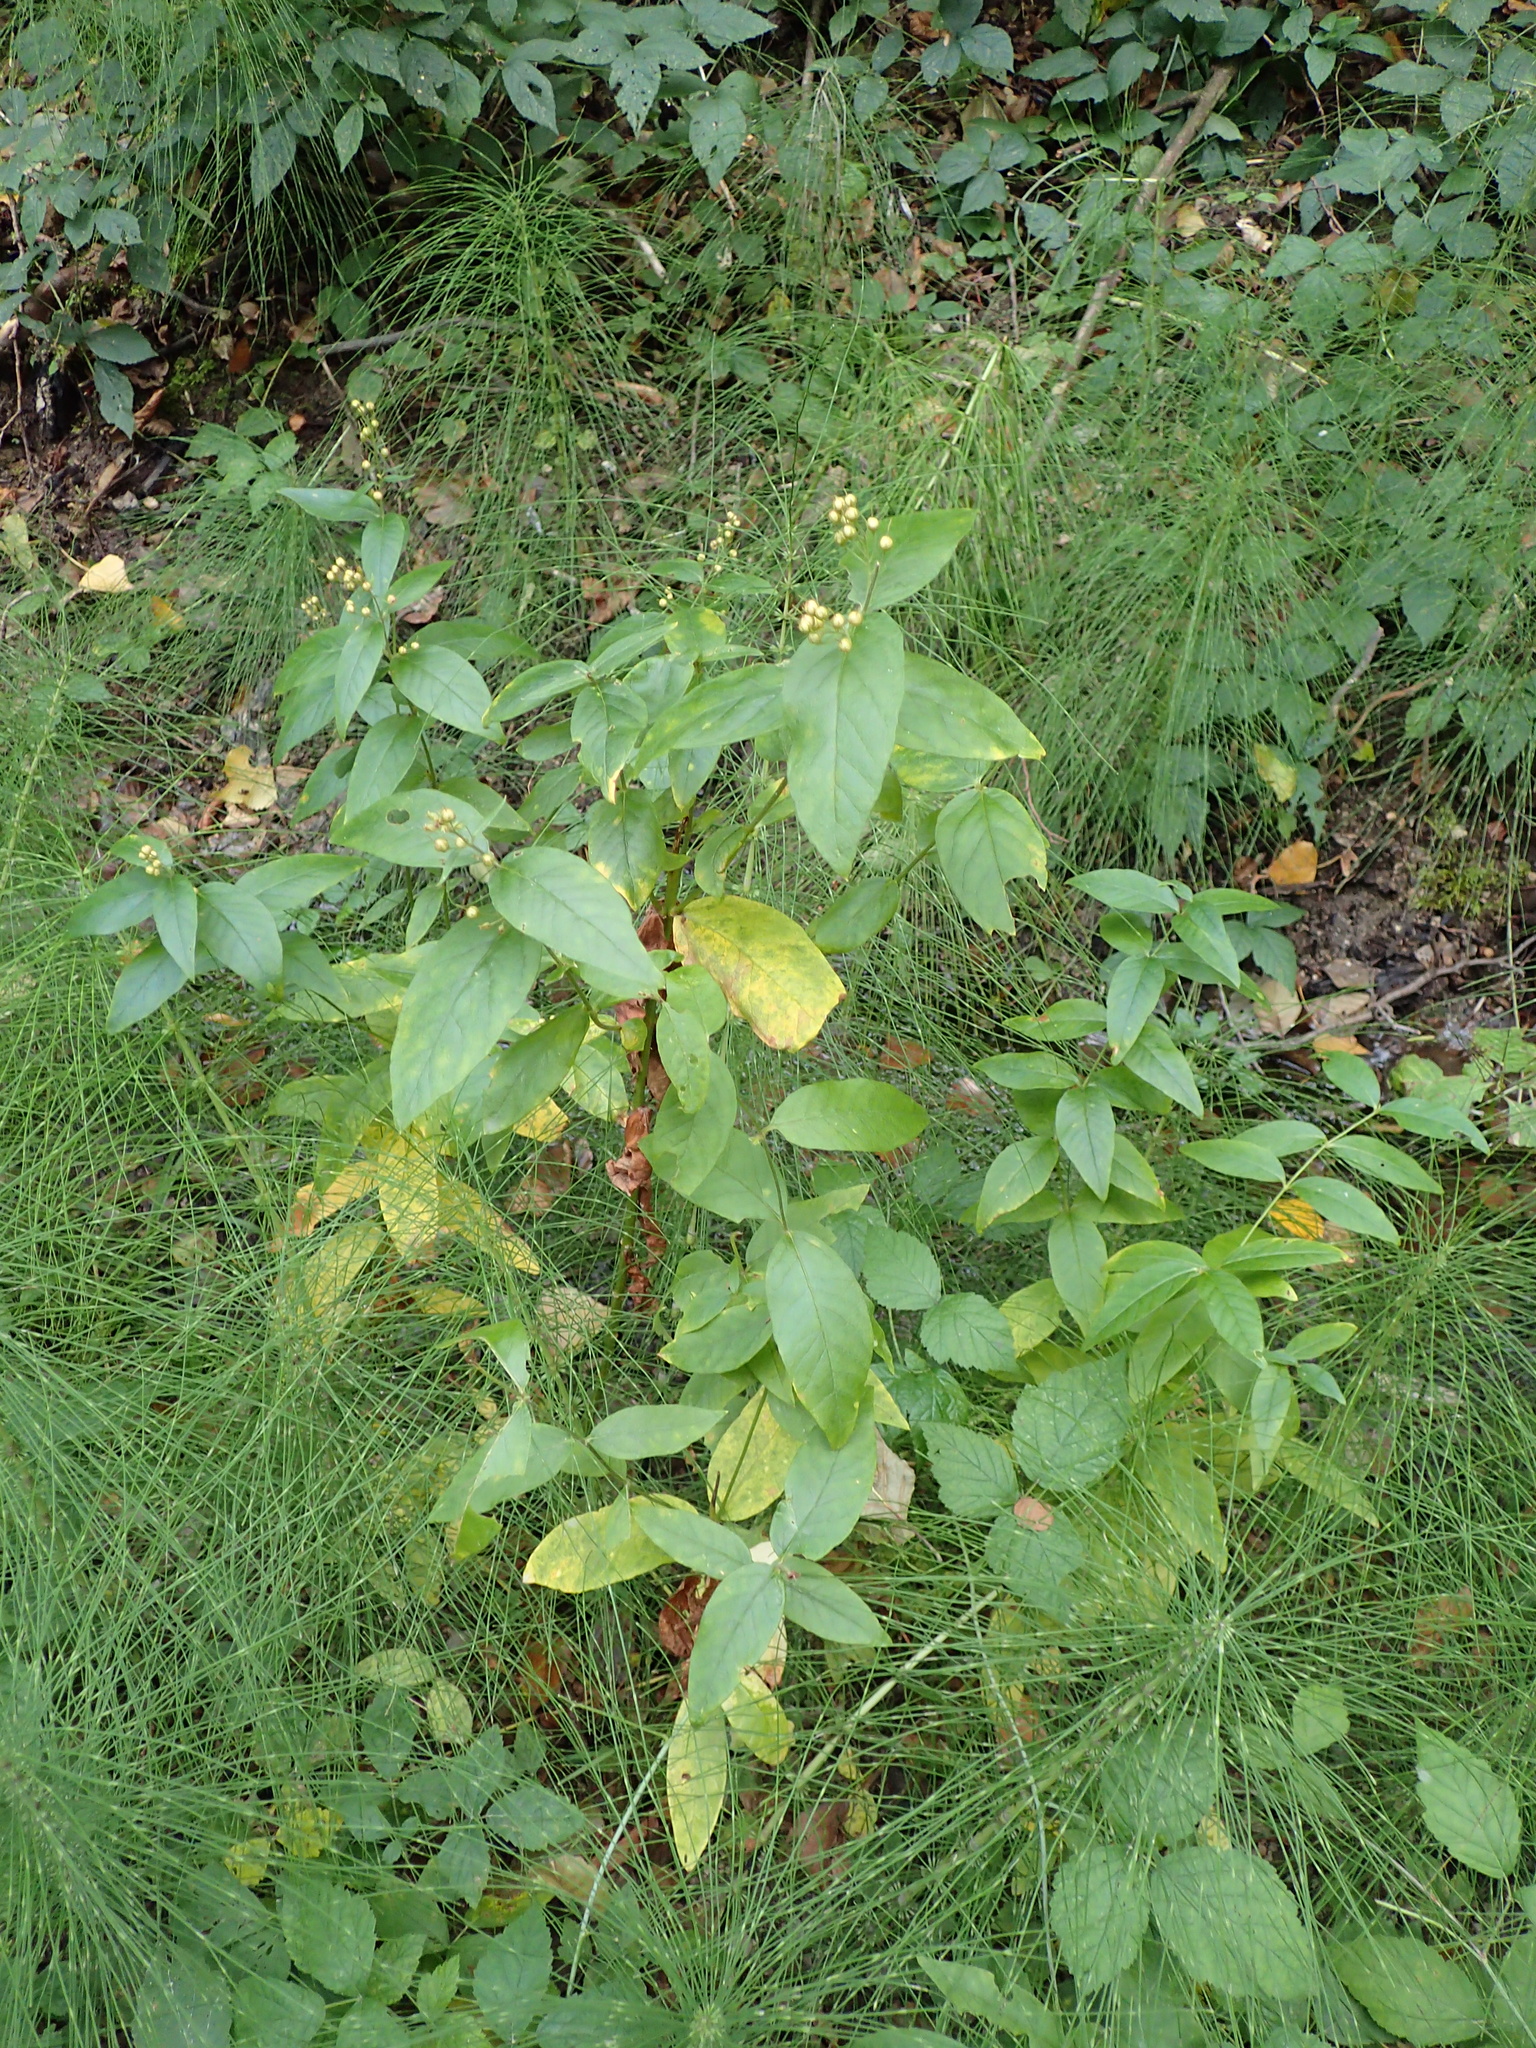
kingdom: Plantae
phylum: Tracheophyta
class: Magnoliopsida
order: Ericales
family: Primulaceae
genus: Lysimachia
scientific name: Lysimachia vulgaris
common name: Yellow loosestrife
